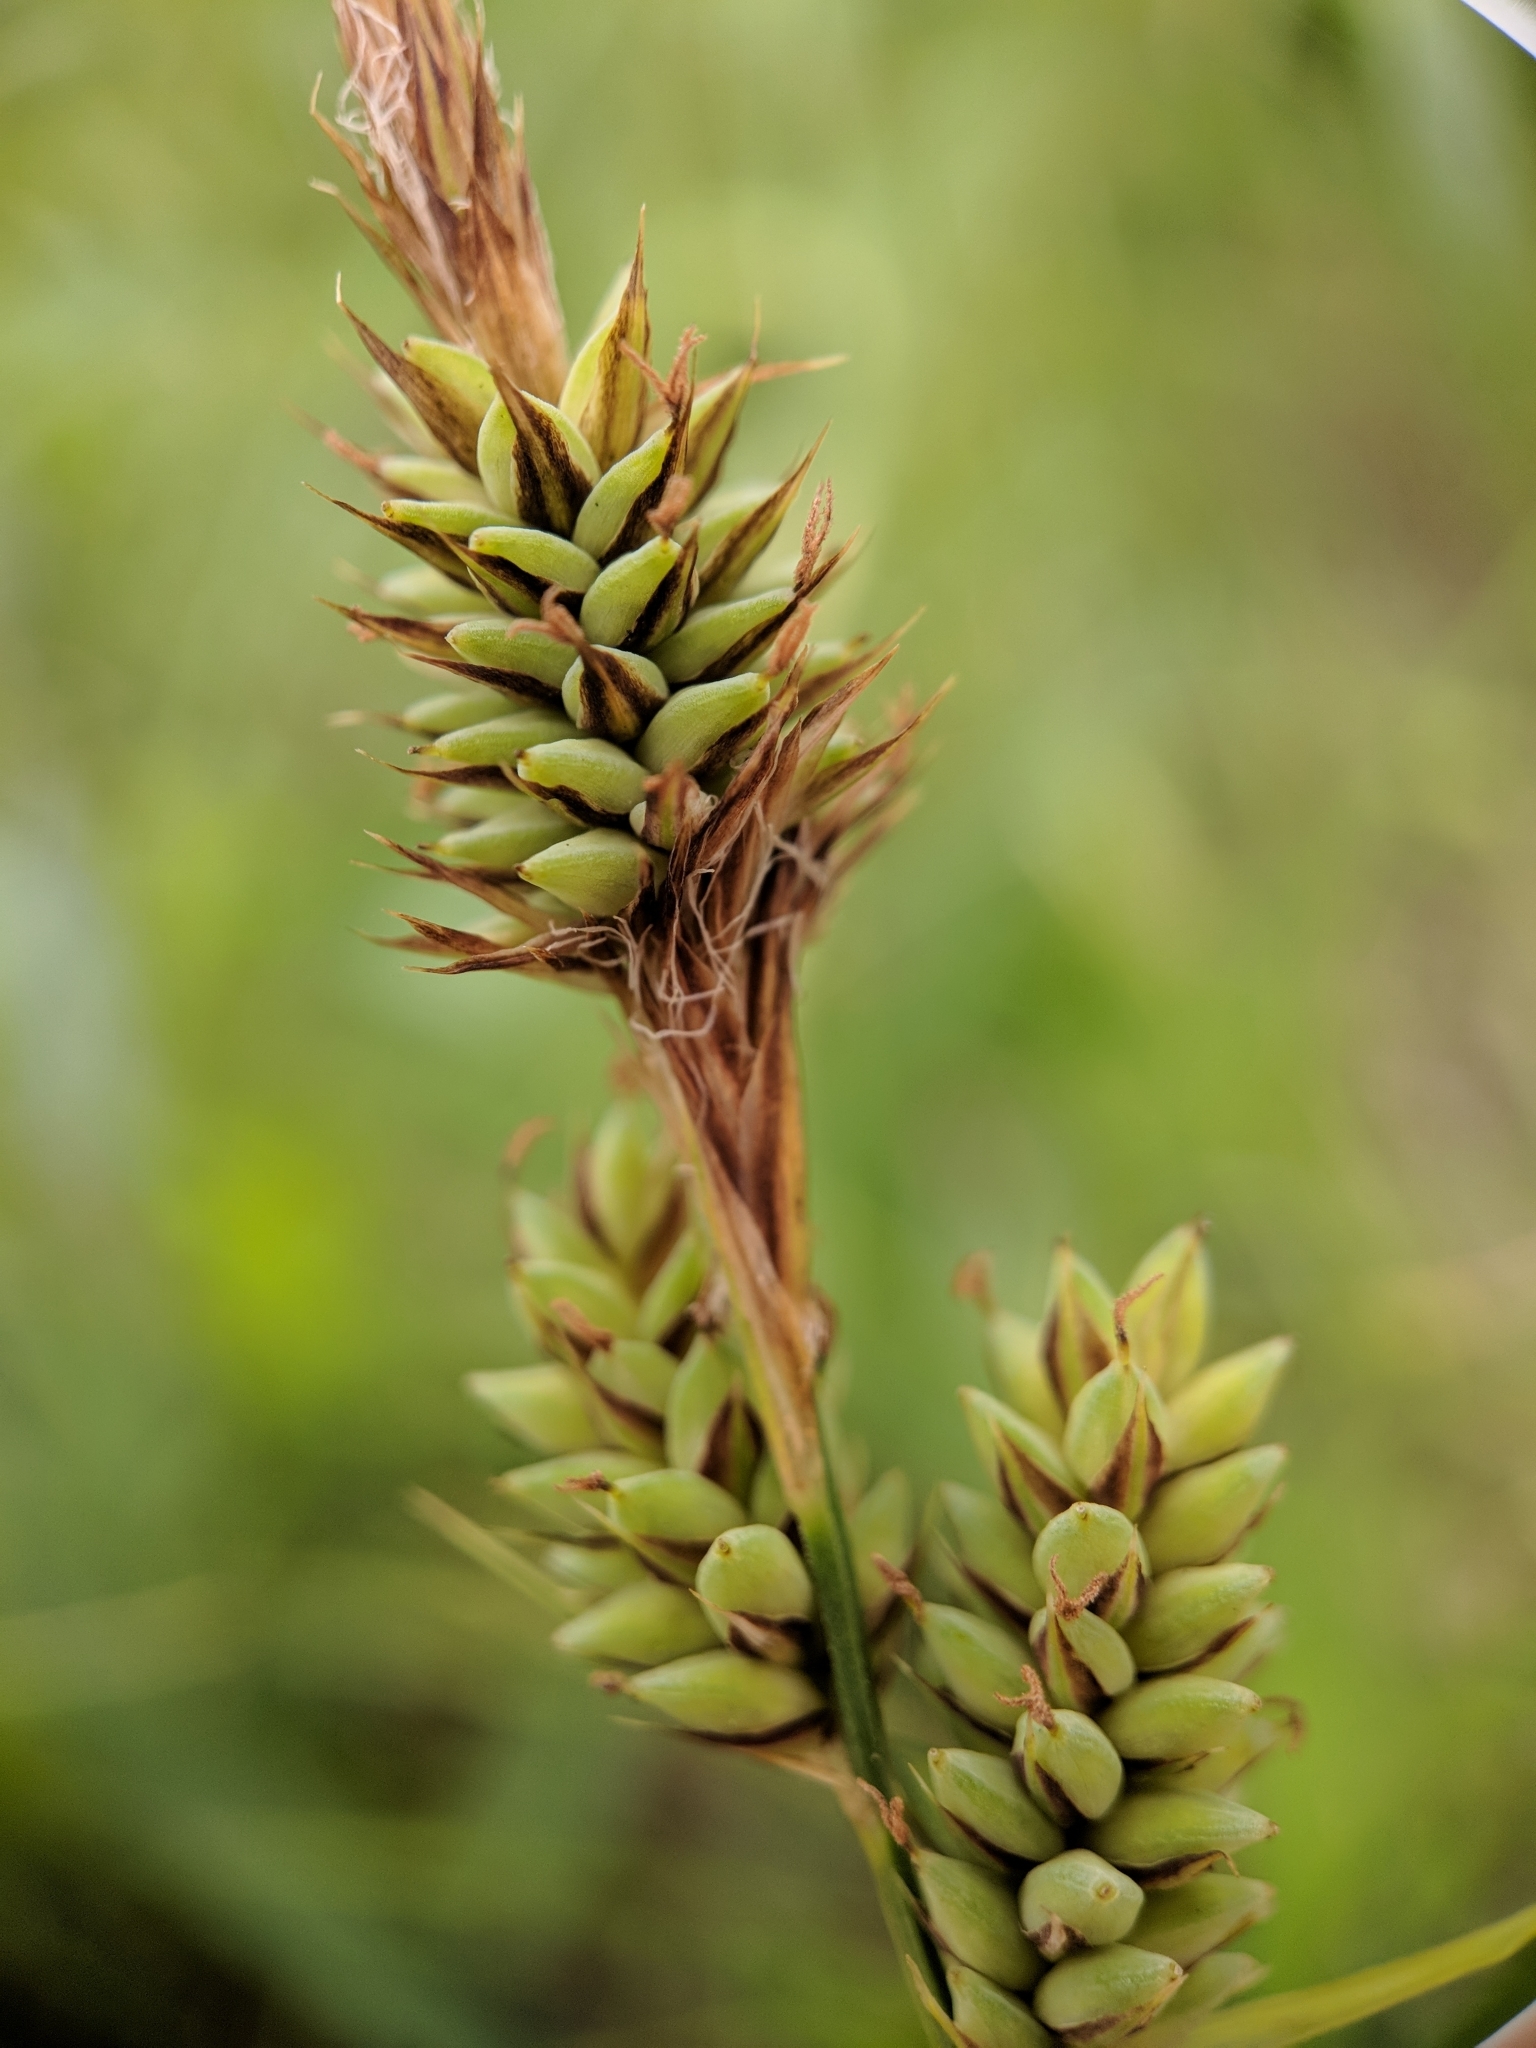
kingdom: Plantae
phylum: Tracheophyta
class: Liliopsida
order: Poales
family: Cyperaceae
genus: Carex
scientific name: Carex buxbaumii
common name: Club sedge
